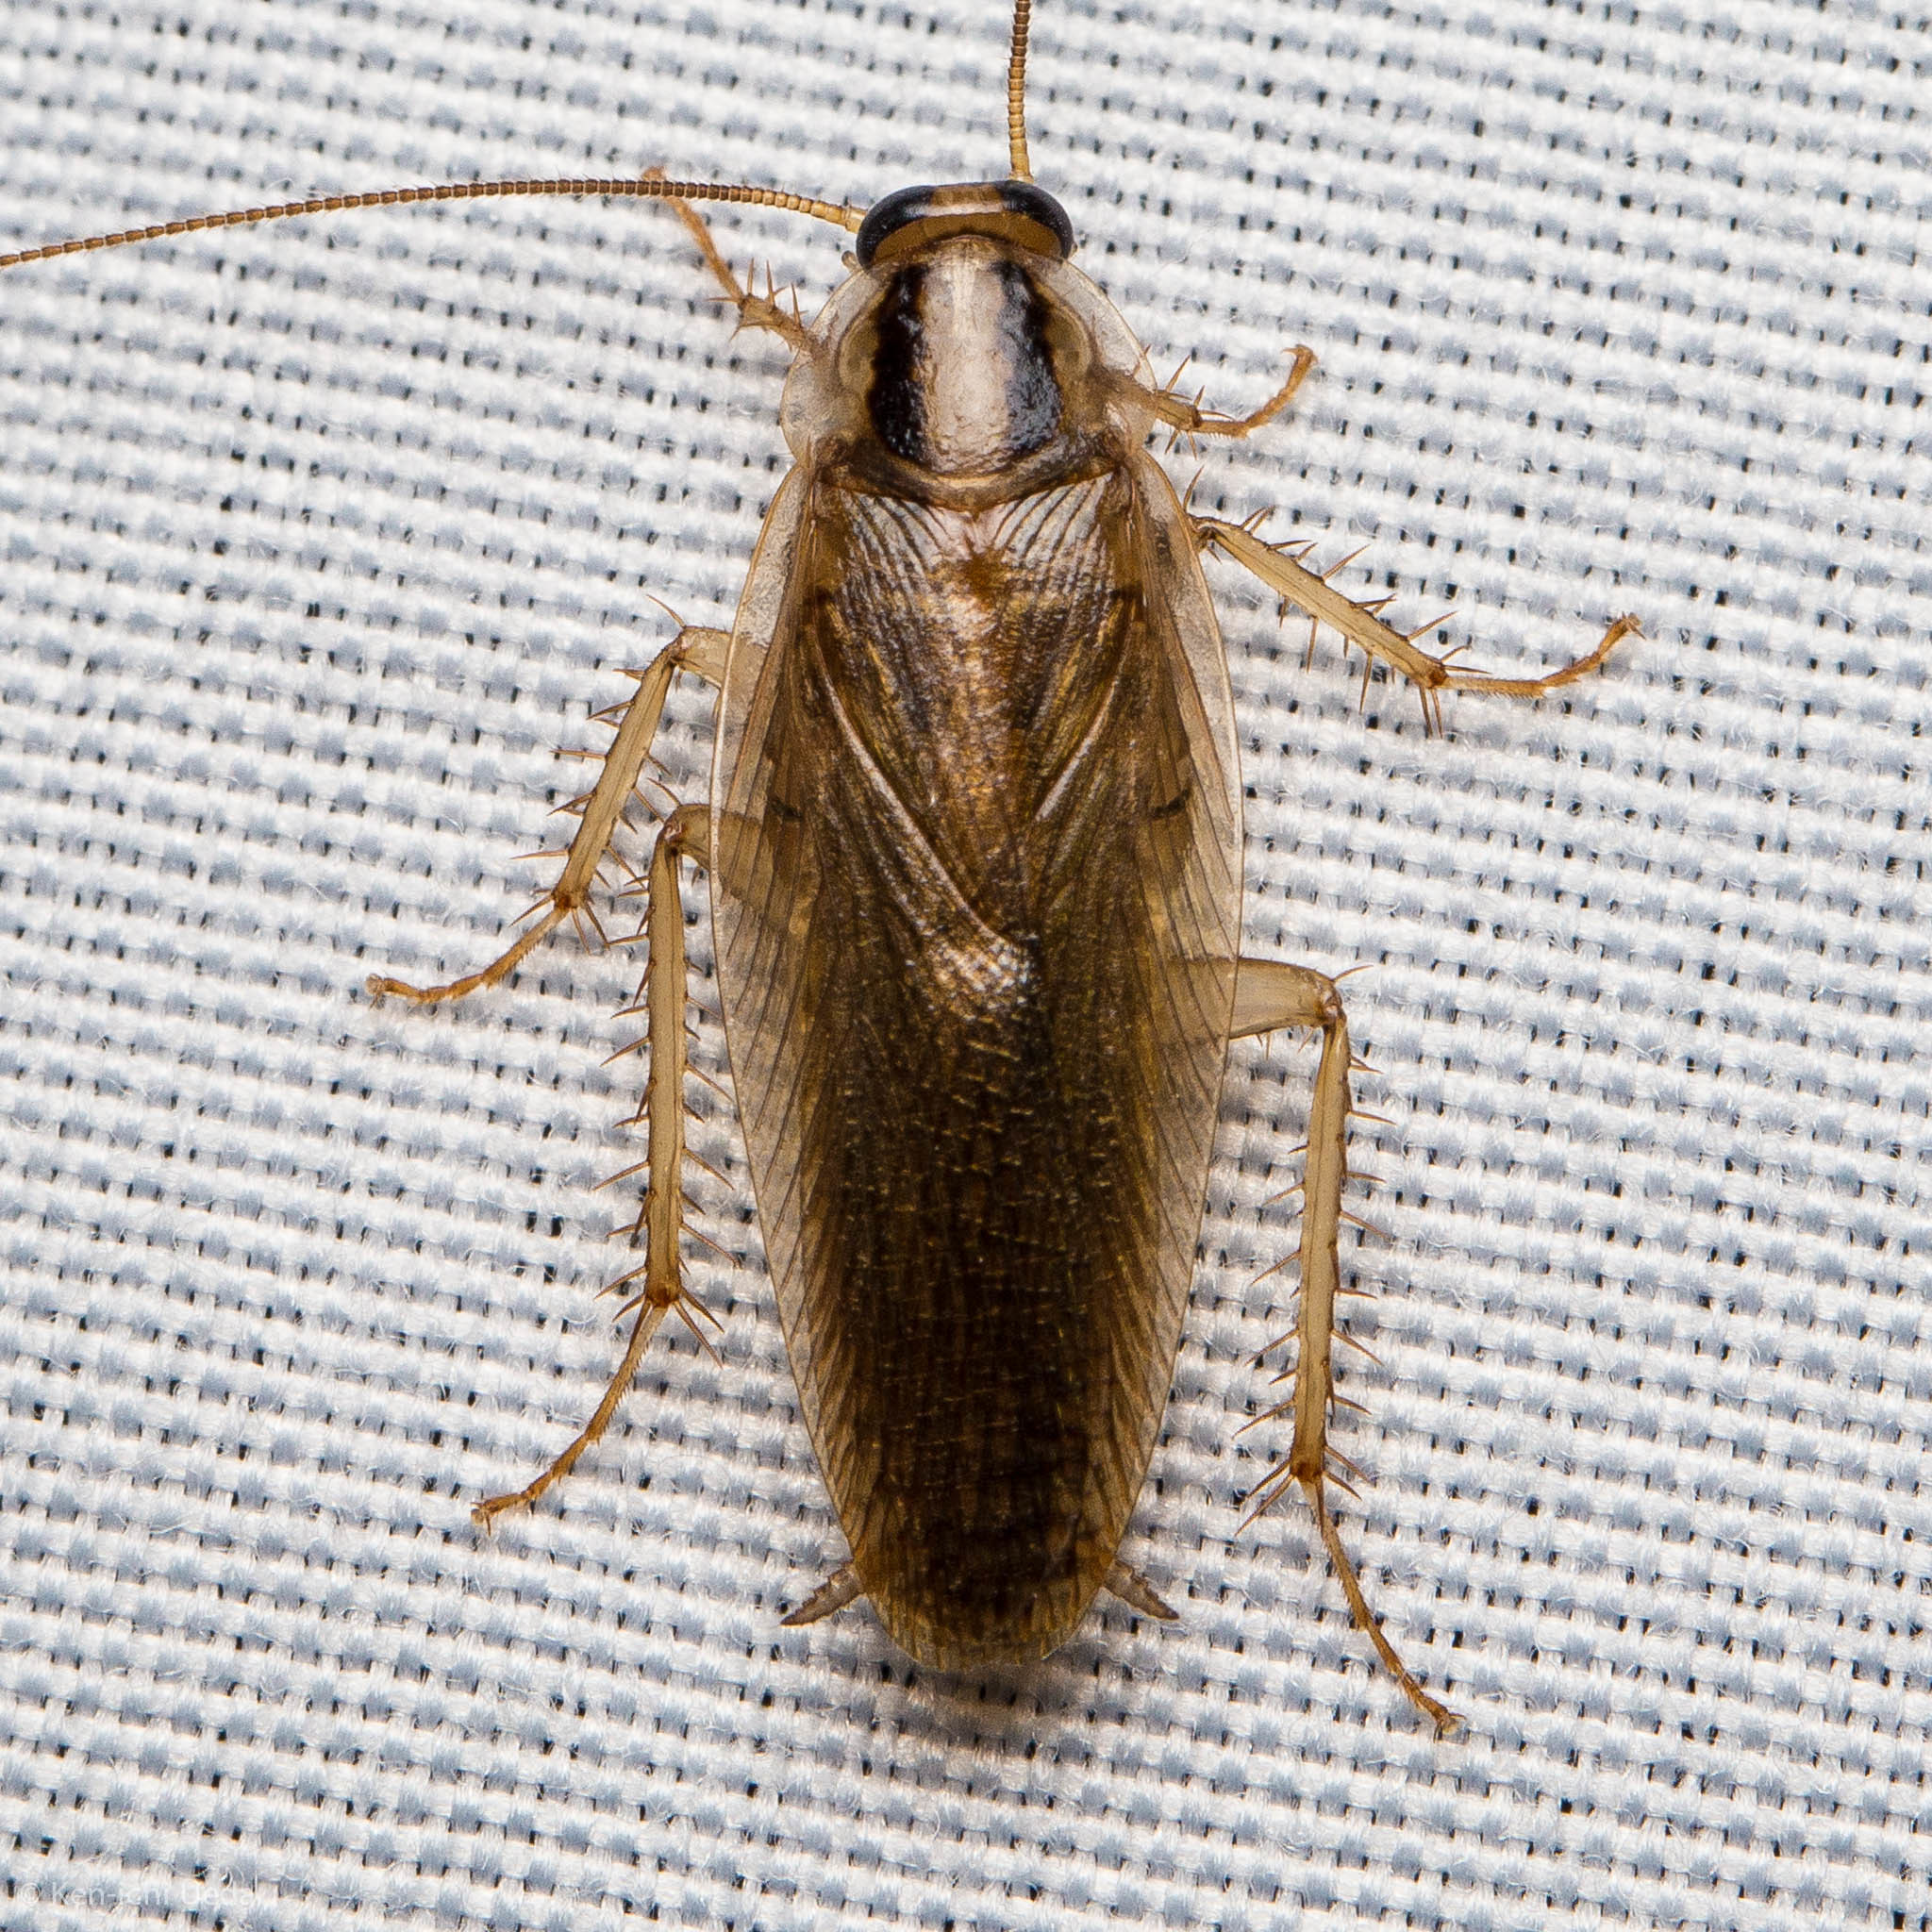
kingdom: Animalia
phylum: Arthropoda
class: Insecta
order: Blattodea
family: Ectobiidae
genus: Blattella
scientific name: Blattella germanica
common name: German cockroach
